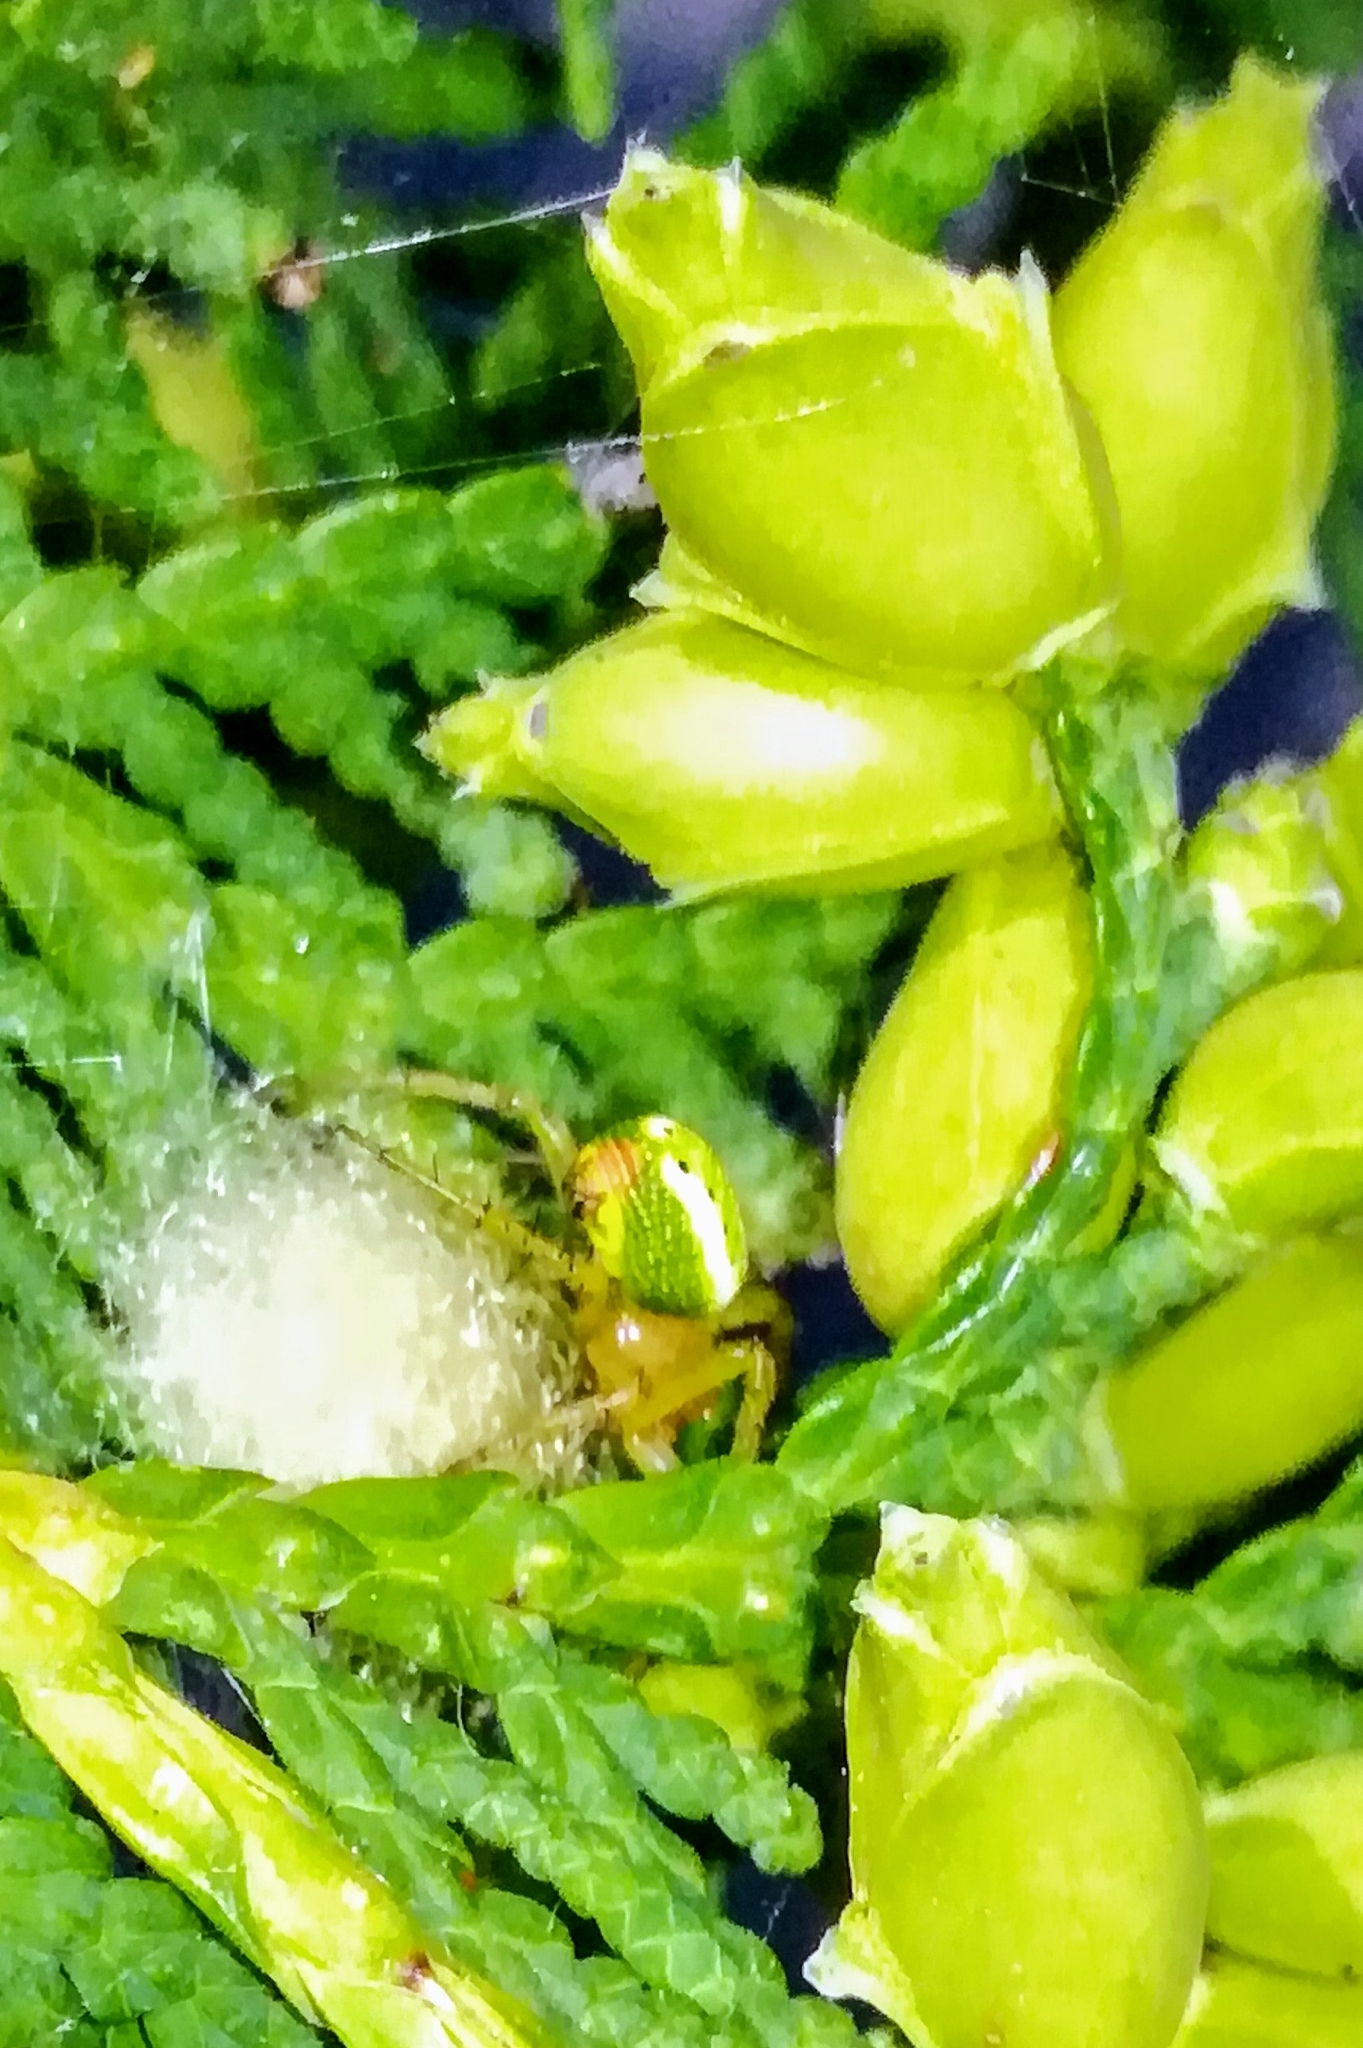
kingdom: Animalia
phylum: Arthropoda
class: Arachnida
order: Araneae
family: Araneidae
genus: Araniella
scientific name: Araniella cucurbitina
